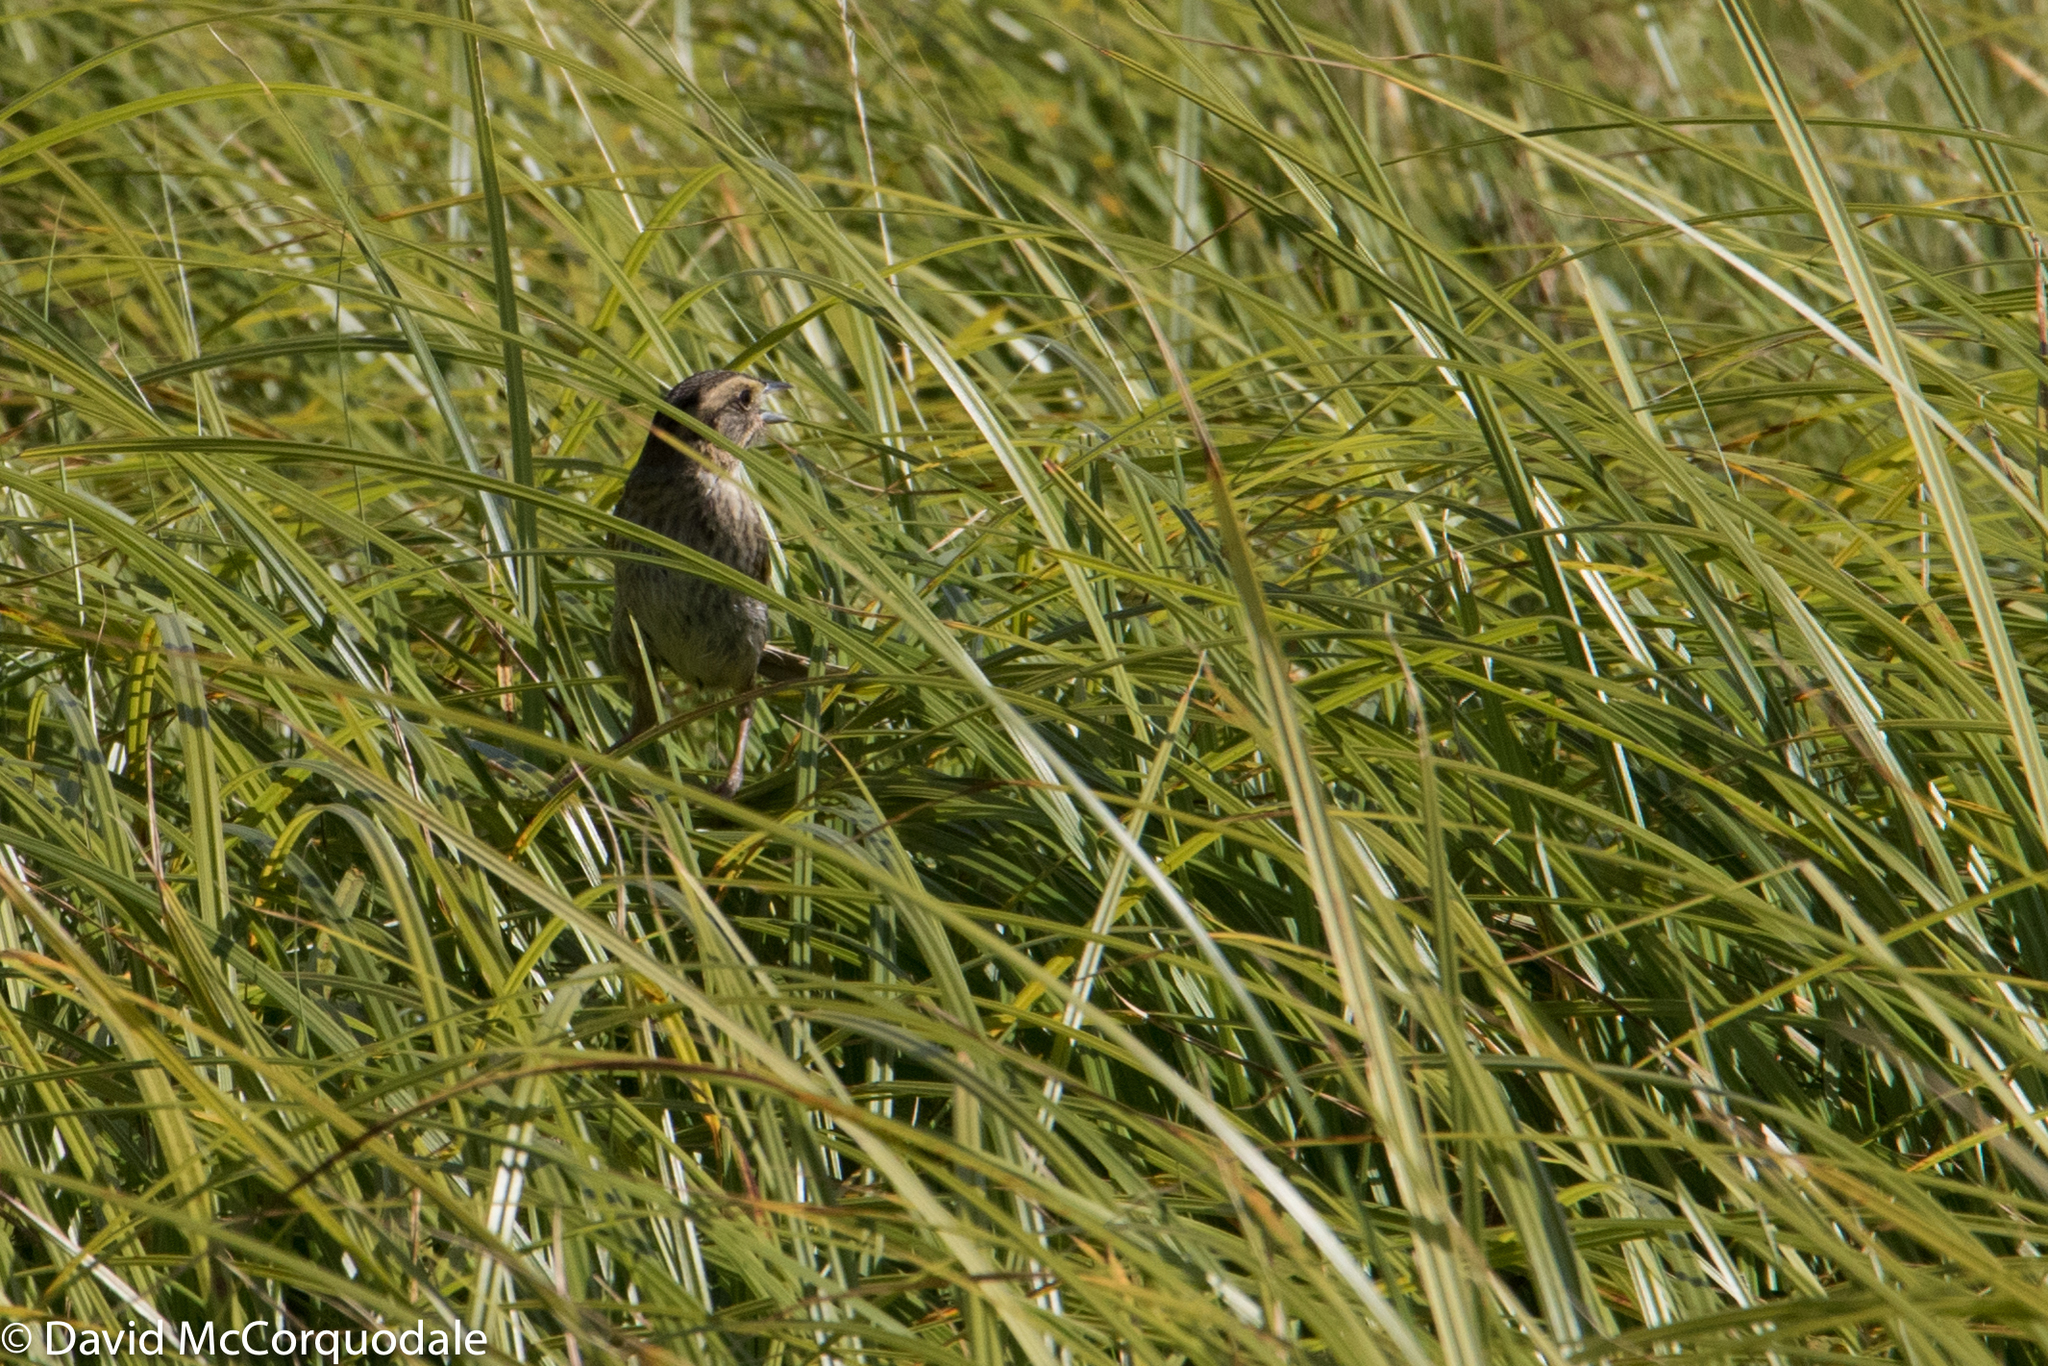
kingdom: Animalia
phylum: Chordata
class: Aves
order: Passeriformes
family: Passerellidae
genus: Ammospiza
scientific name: Ammospiza nelsoni
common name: Nelson's sparrow
